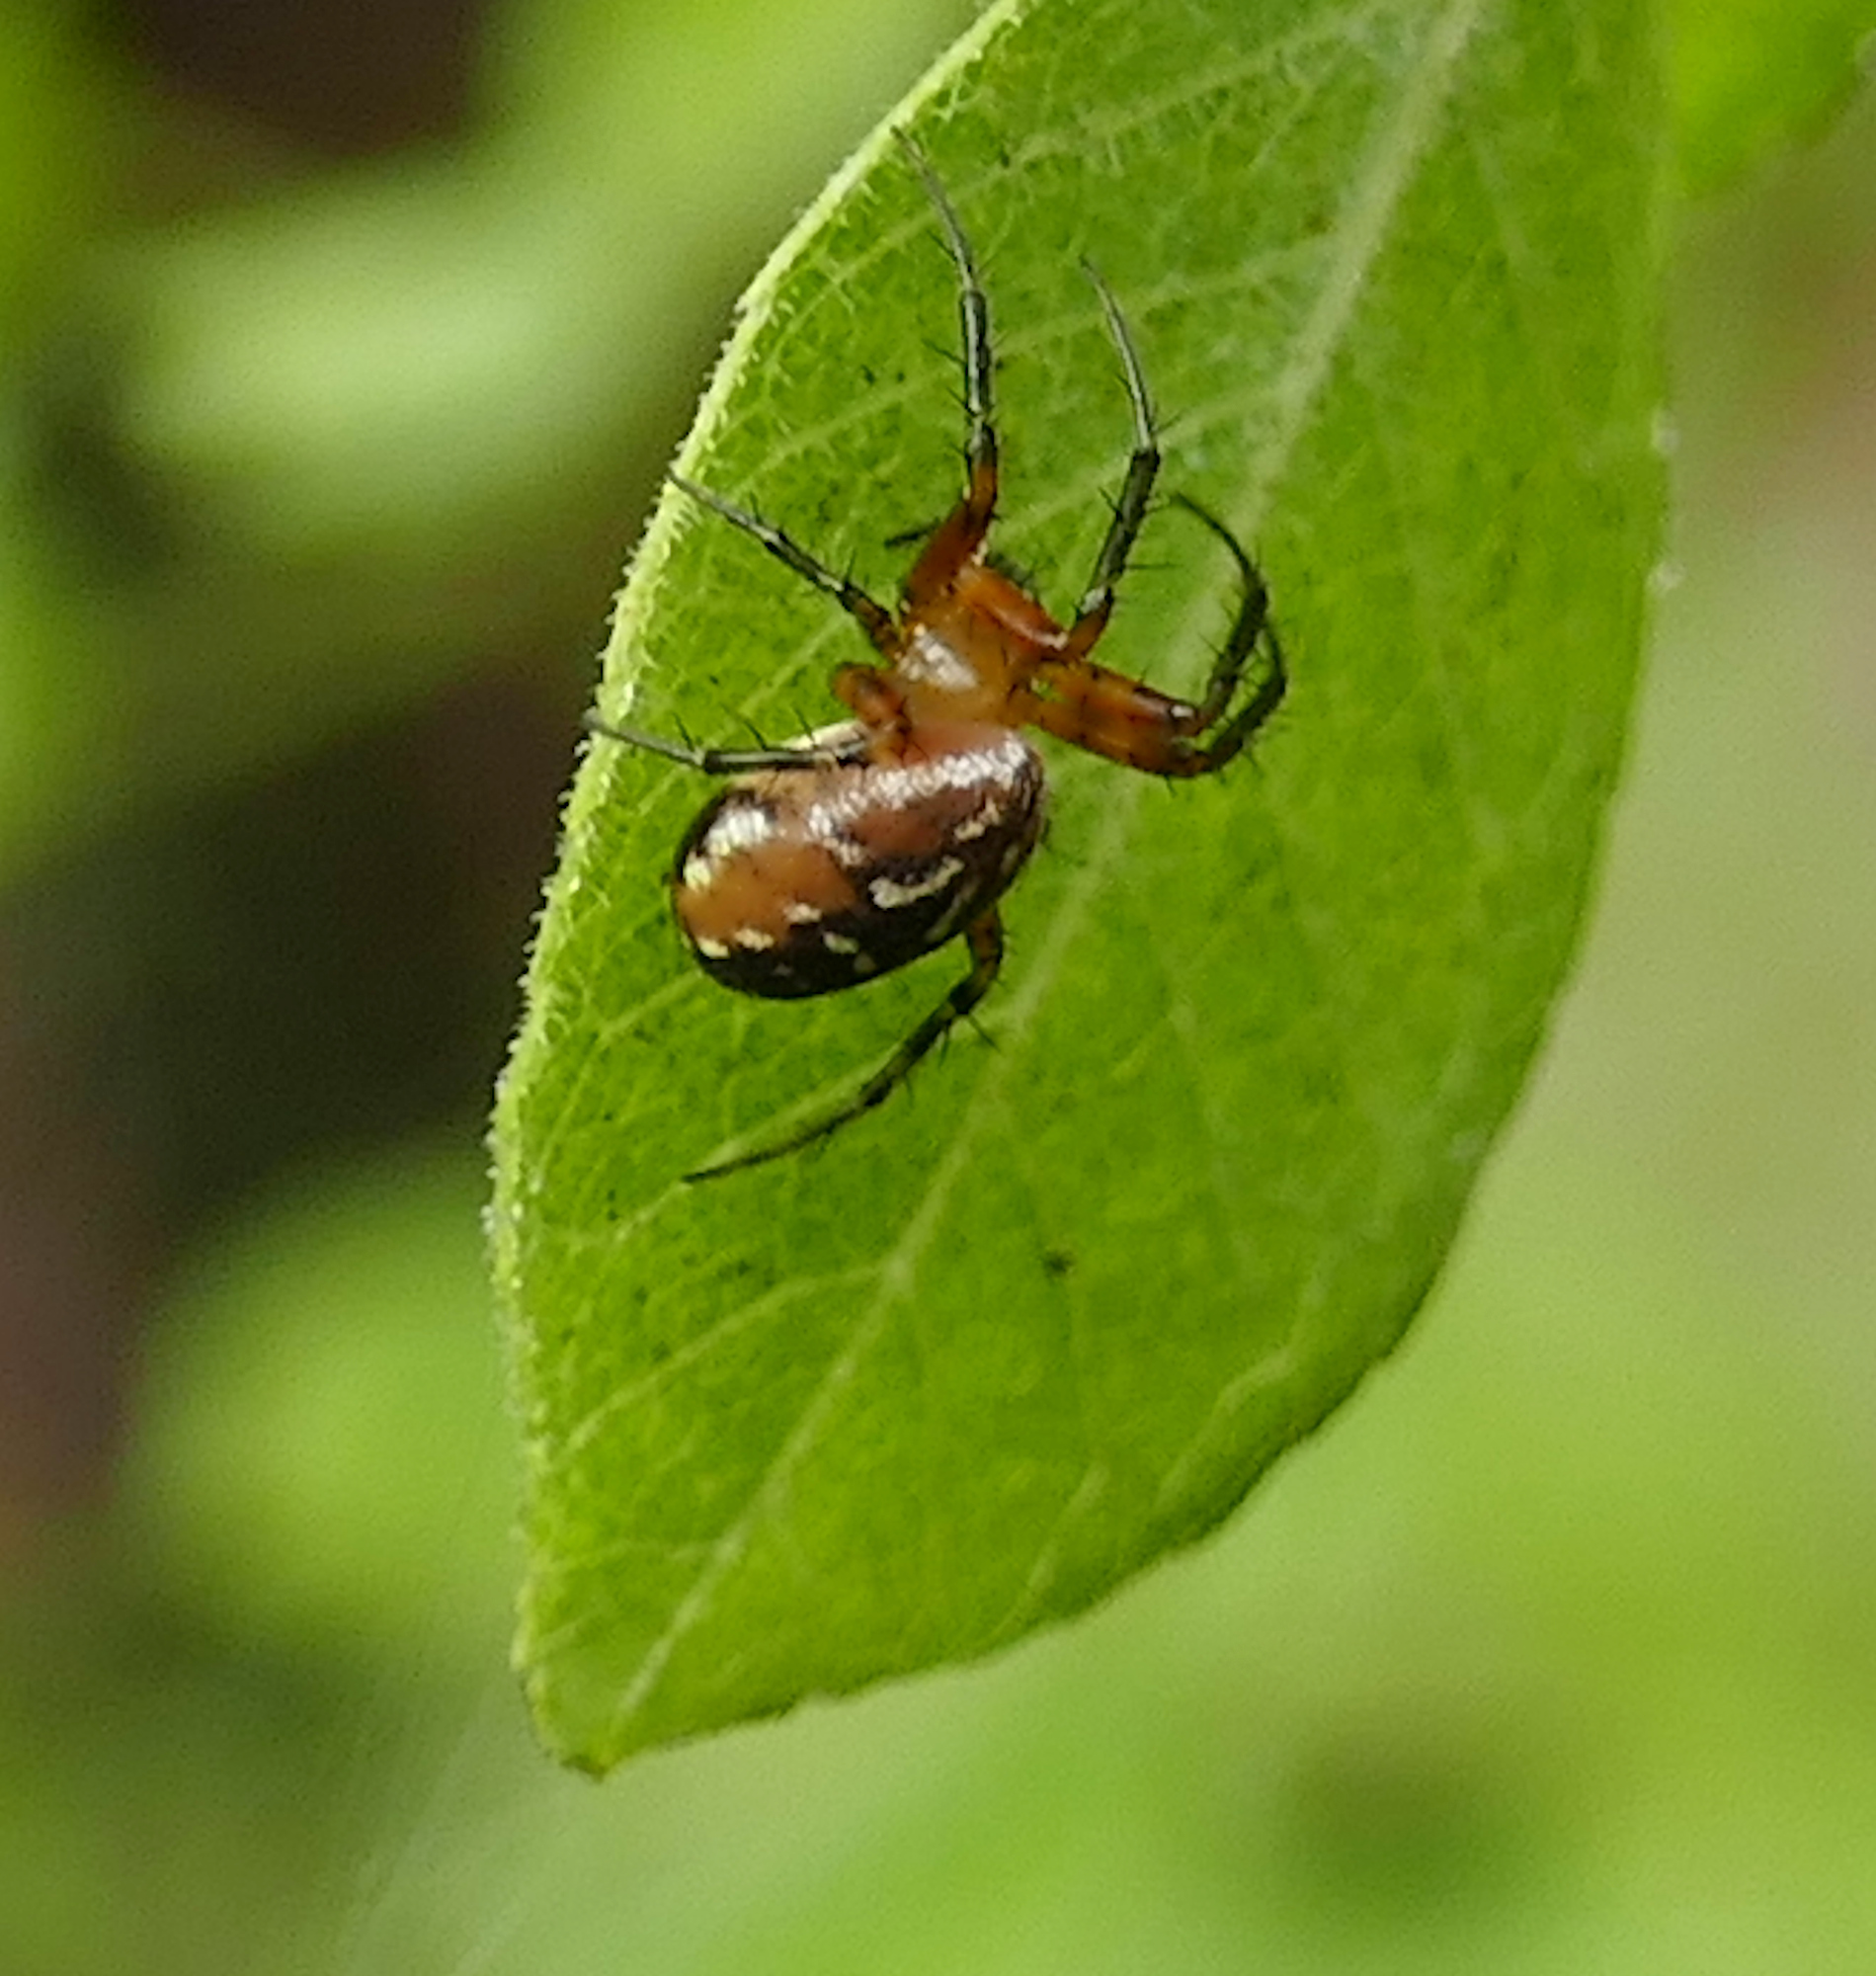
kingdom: Animalia
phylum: Arthropoda
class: Arachnida
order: Araneae
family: Araneidae
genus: Mangora
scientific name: Mangora passiva
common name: Orb weavers
